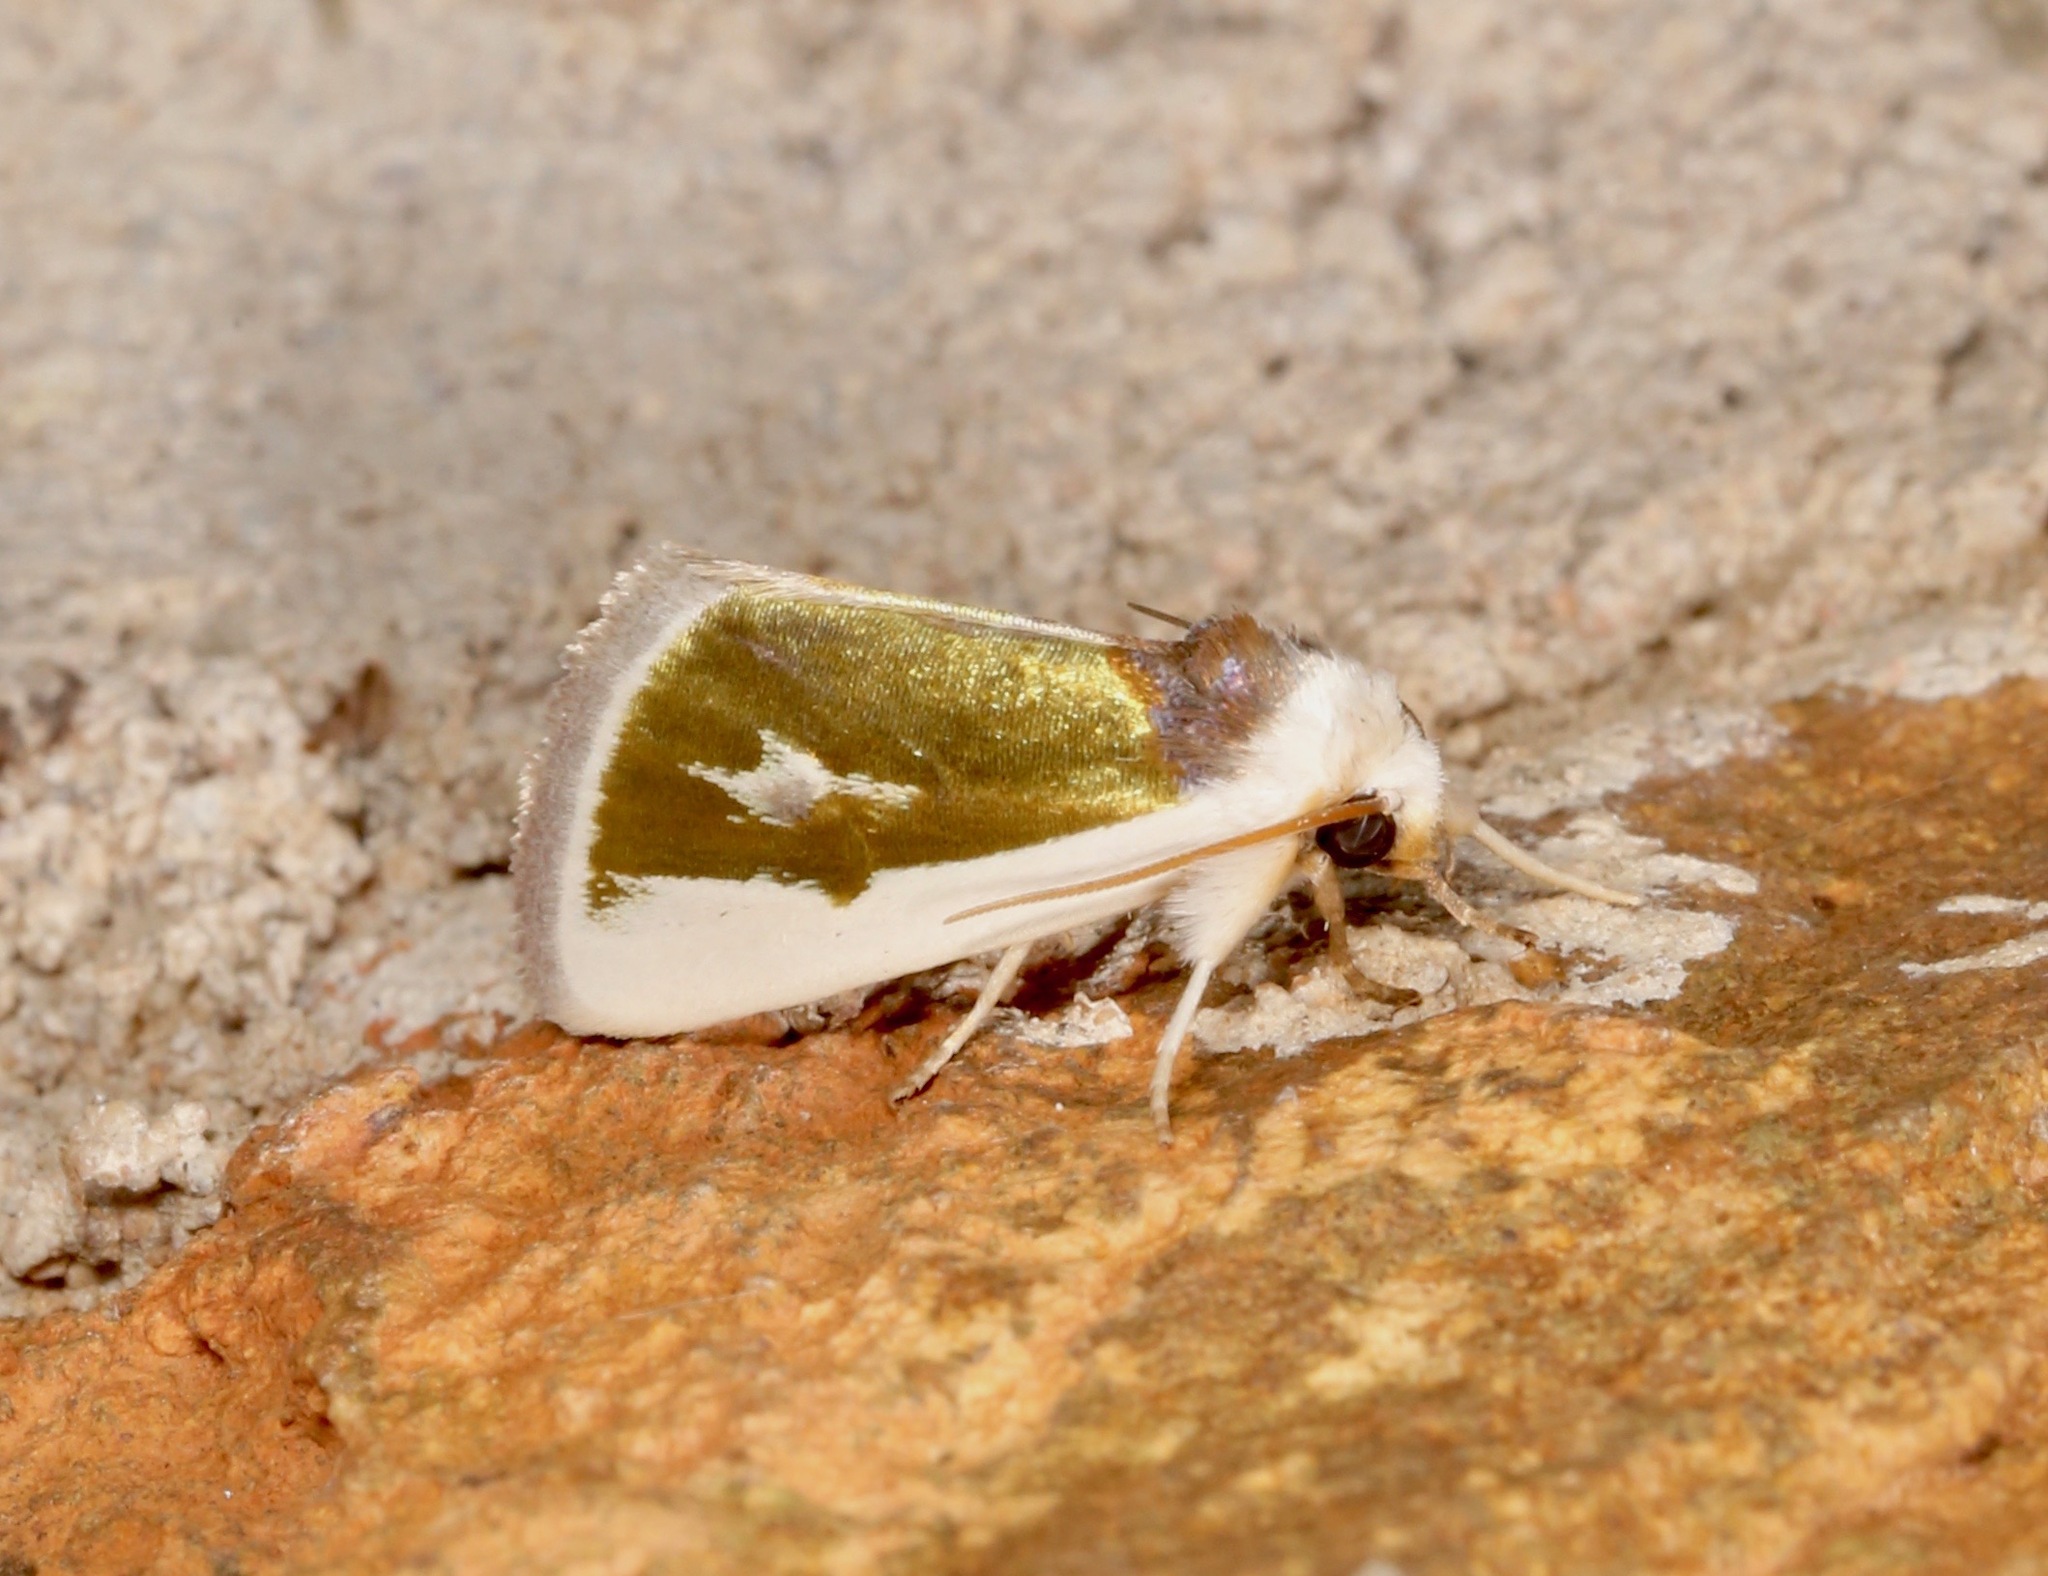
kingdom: Animalia
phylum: Arthropoda
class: Insecta
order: Lepidoptera
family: Noctuidae
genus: Neumoegenia
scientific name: Neumoegenia poetica
